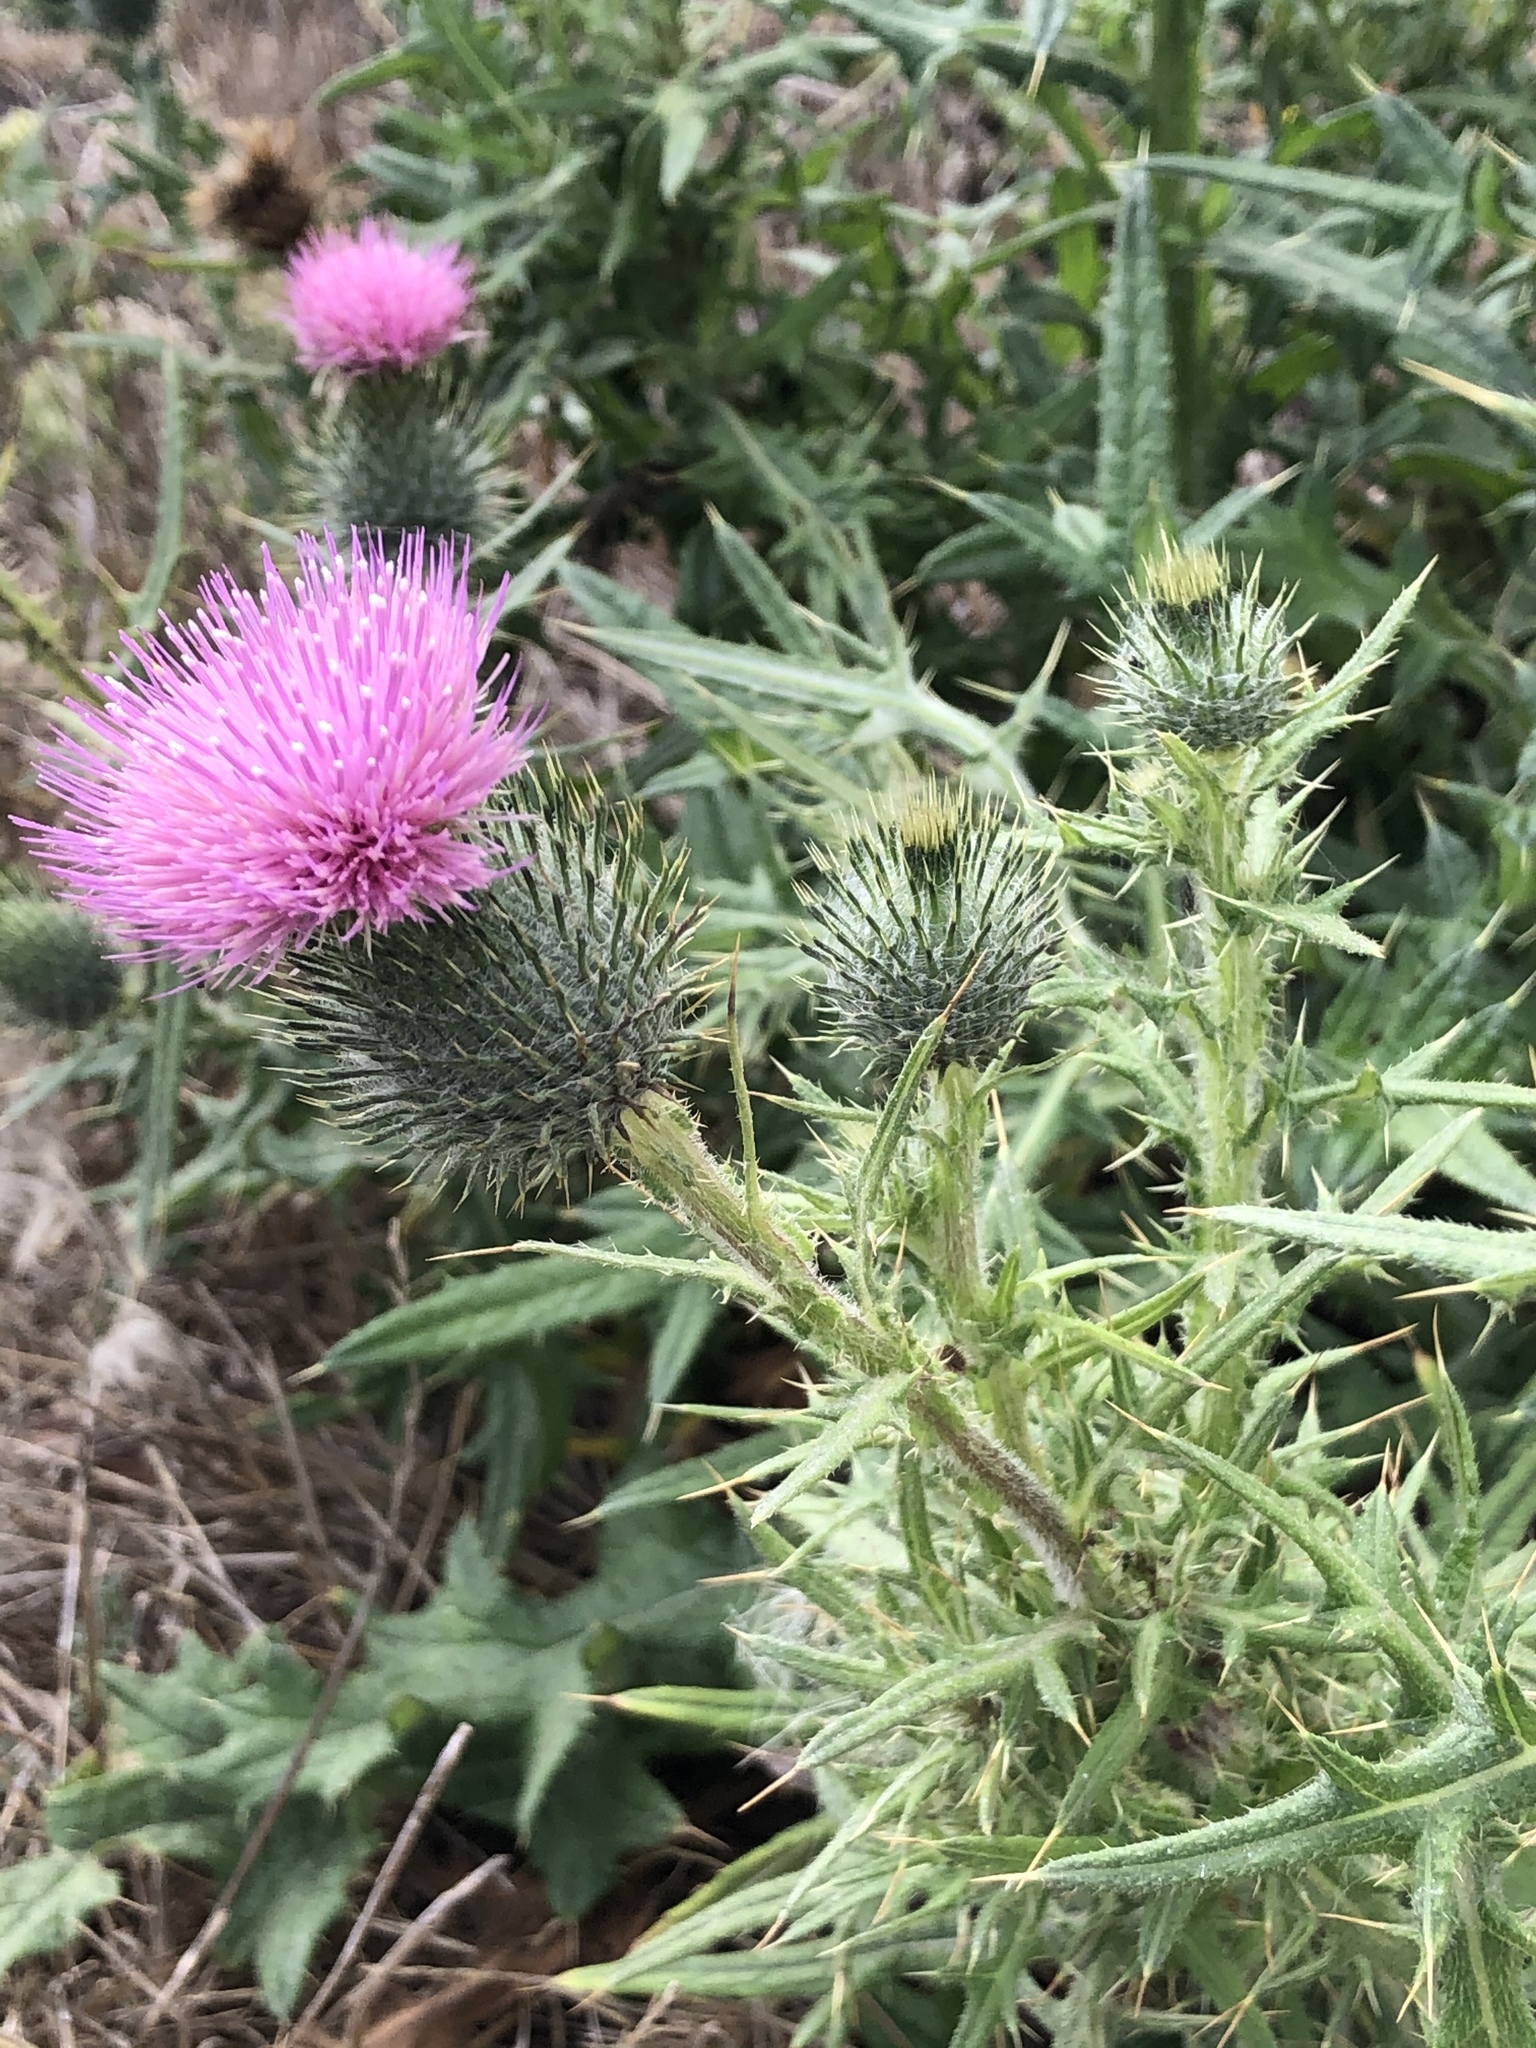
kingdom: Plantae
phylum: Tracheophyta
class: Magnoliopsida
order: Asterales
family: Asteraceae
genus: Cirsium
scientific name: Cirsium vulgare
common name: Bull thistle
